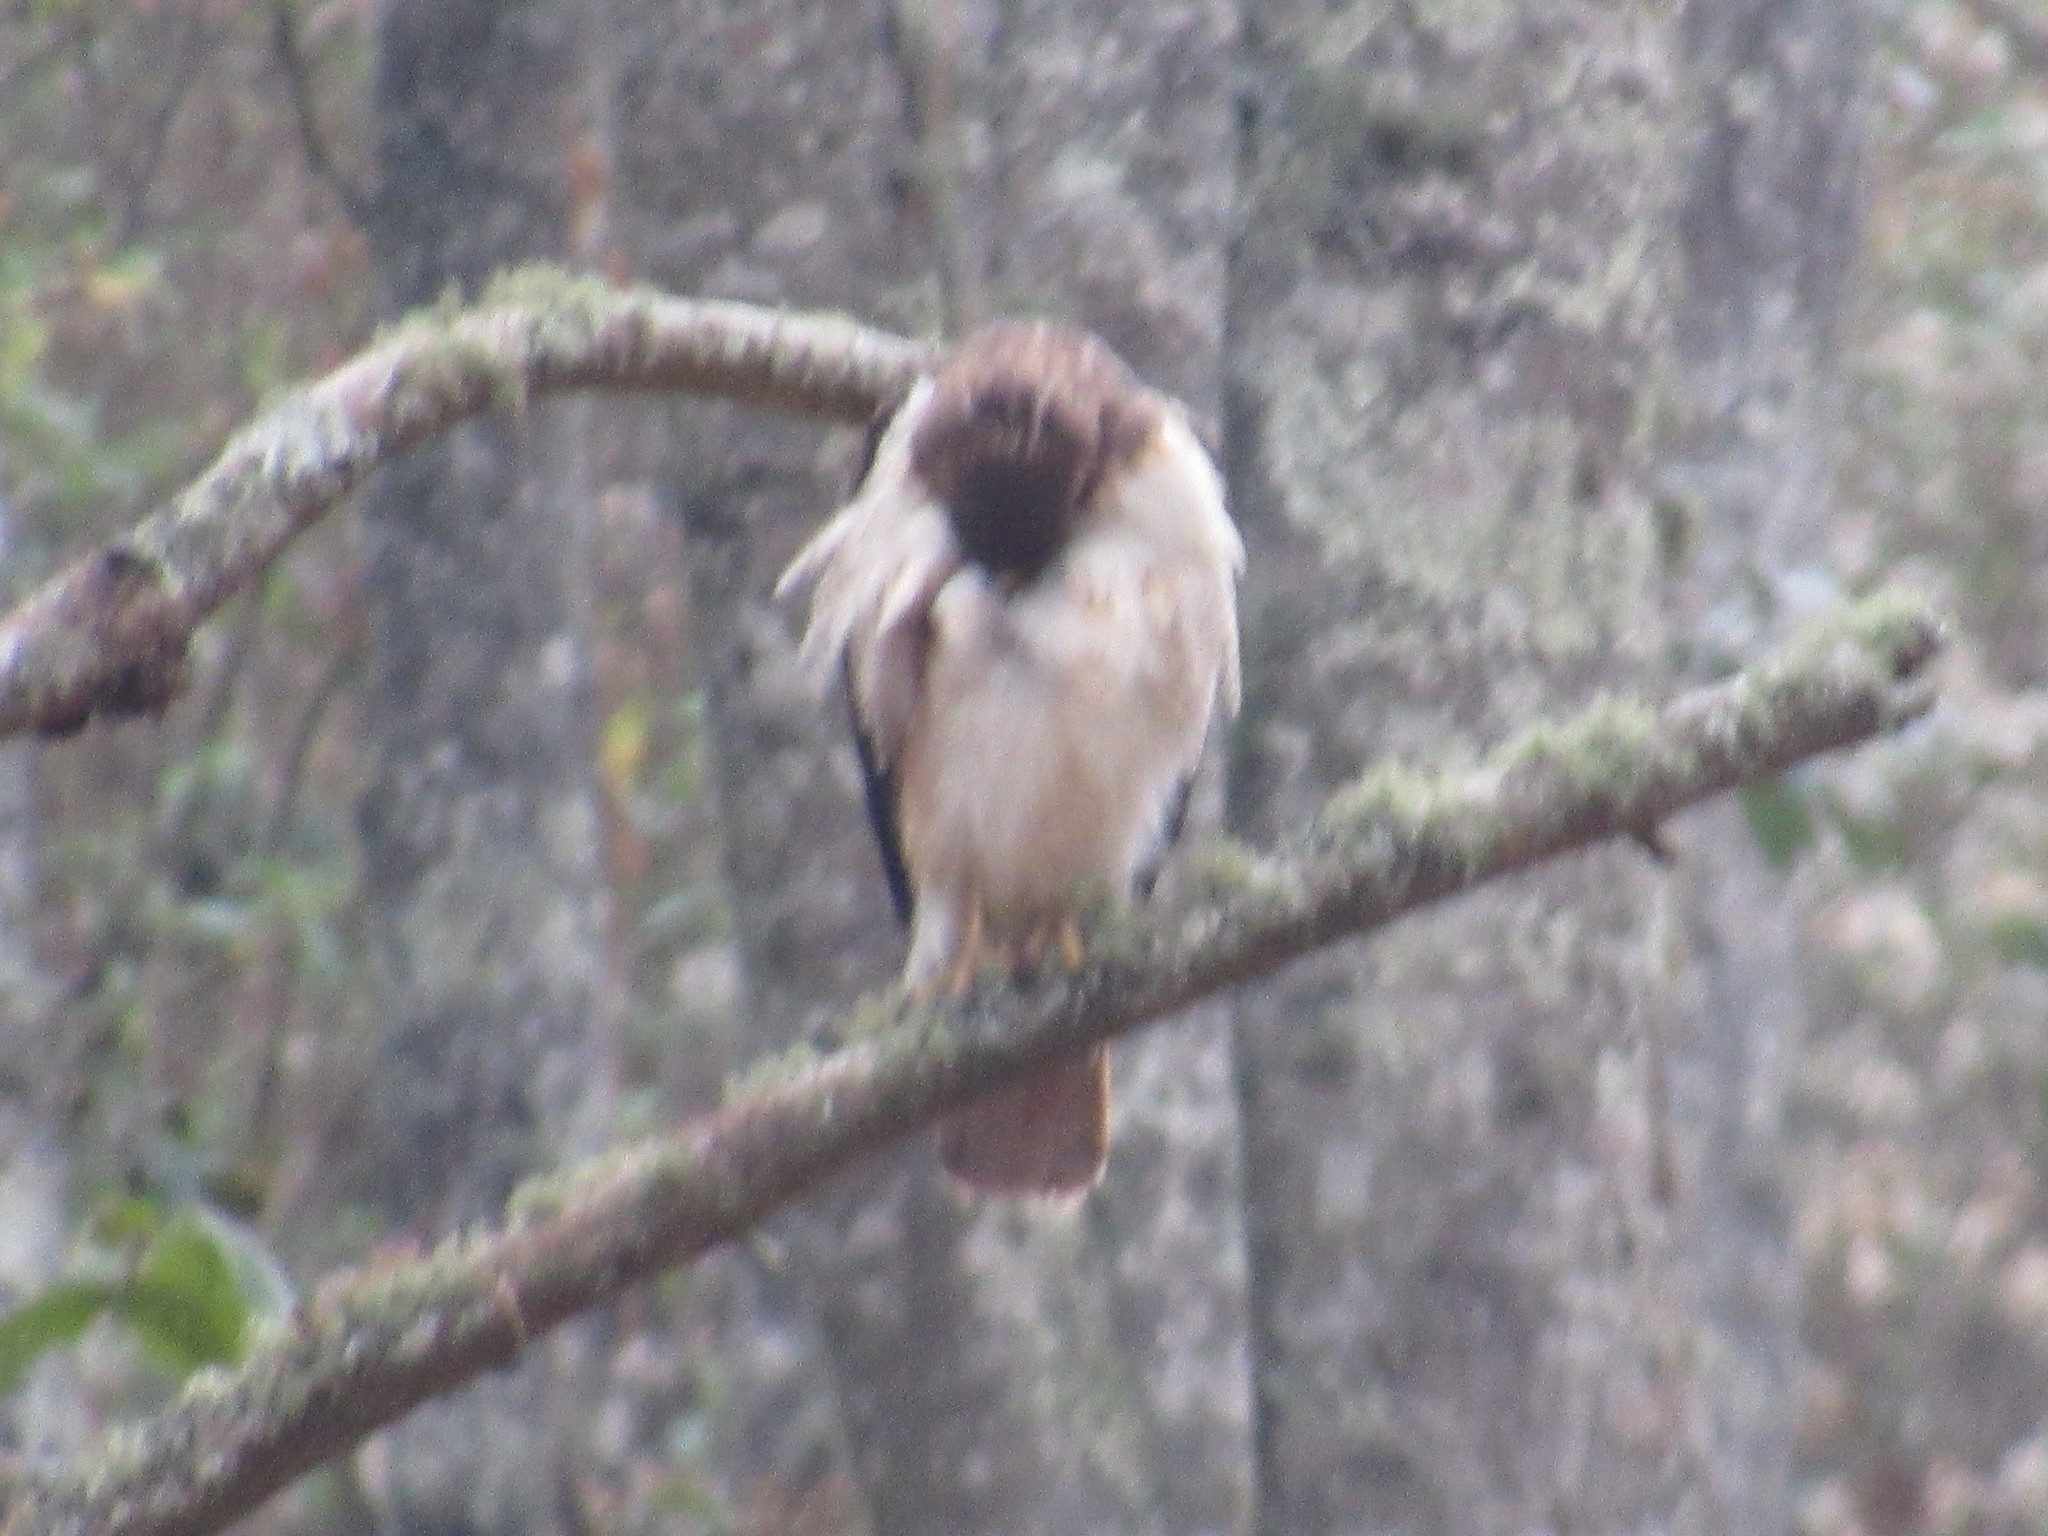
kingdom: Animalia
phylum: Chordata
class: Aves
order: Accipitriformes
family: Accipitridae
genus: Buteo
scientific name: Buteo jamaicensis
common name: Red-tailed hawk
